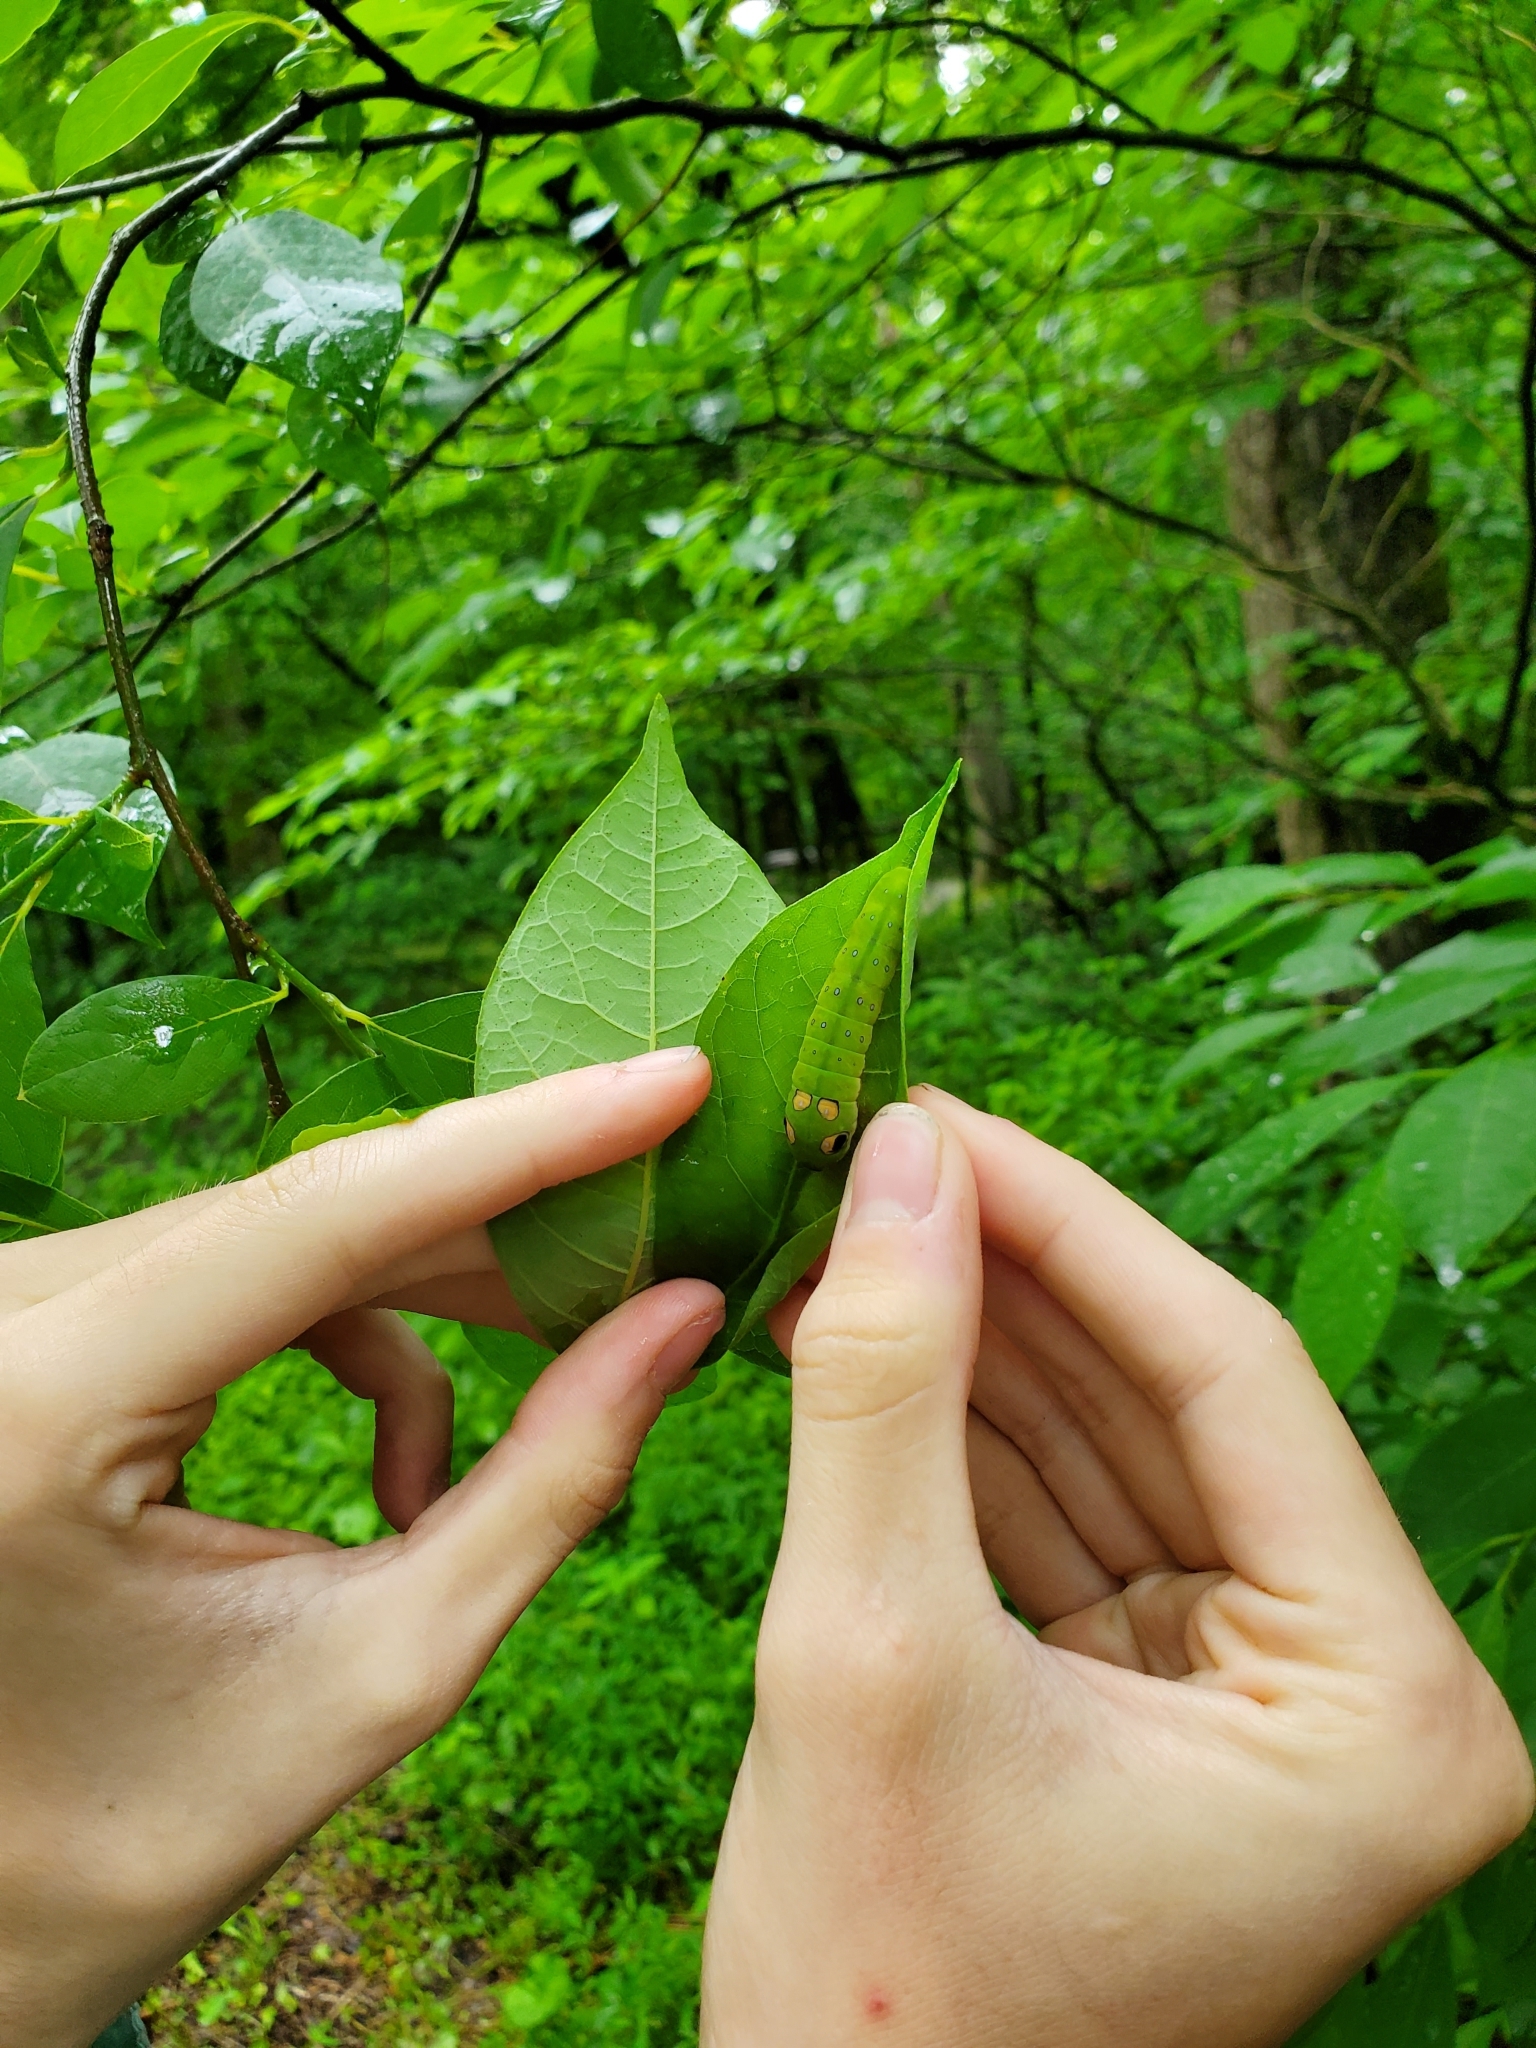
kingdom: Animalia
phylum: Arthropoda
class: Insecta
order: Lepidoptera
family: Papilionidae
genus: Papilio
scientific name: Papilio troilus
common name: Spicebush swallowtail
